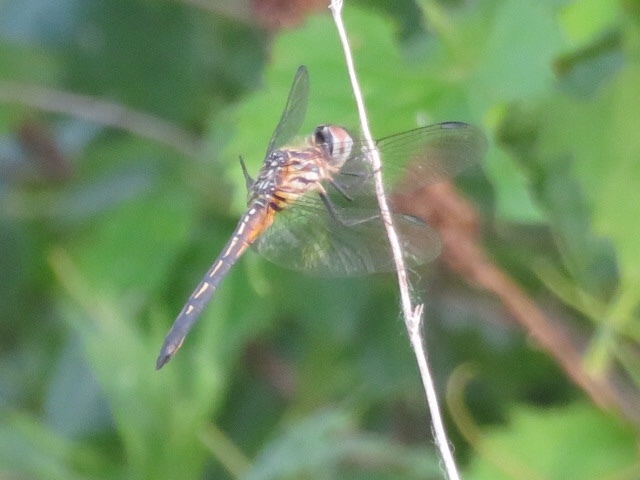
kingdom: Animalia
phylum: Arthropoda
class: Insecta
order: Odonata
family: Libellulidae
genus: Pachydiplax
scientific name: Pachydiplax longipennis
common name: Blue dasher
